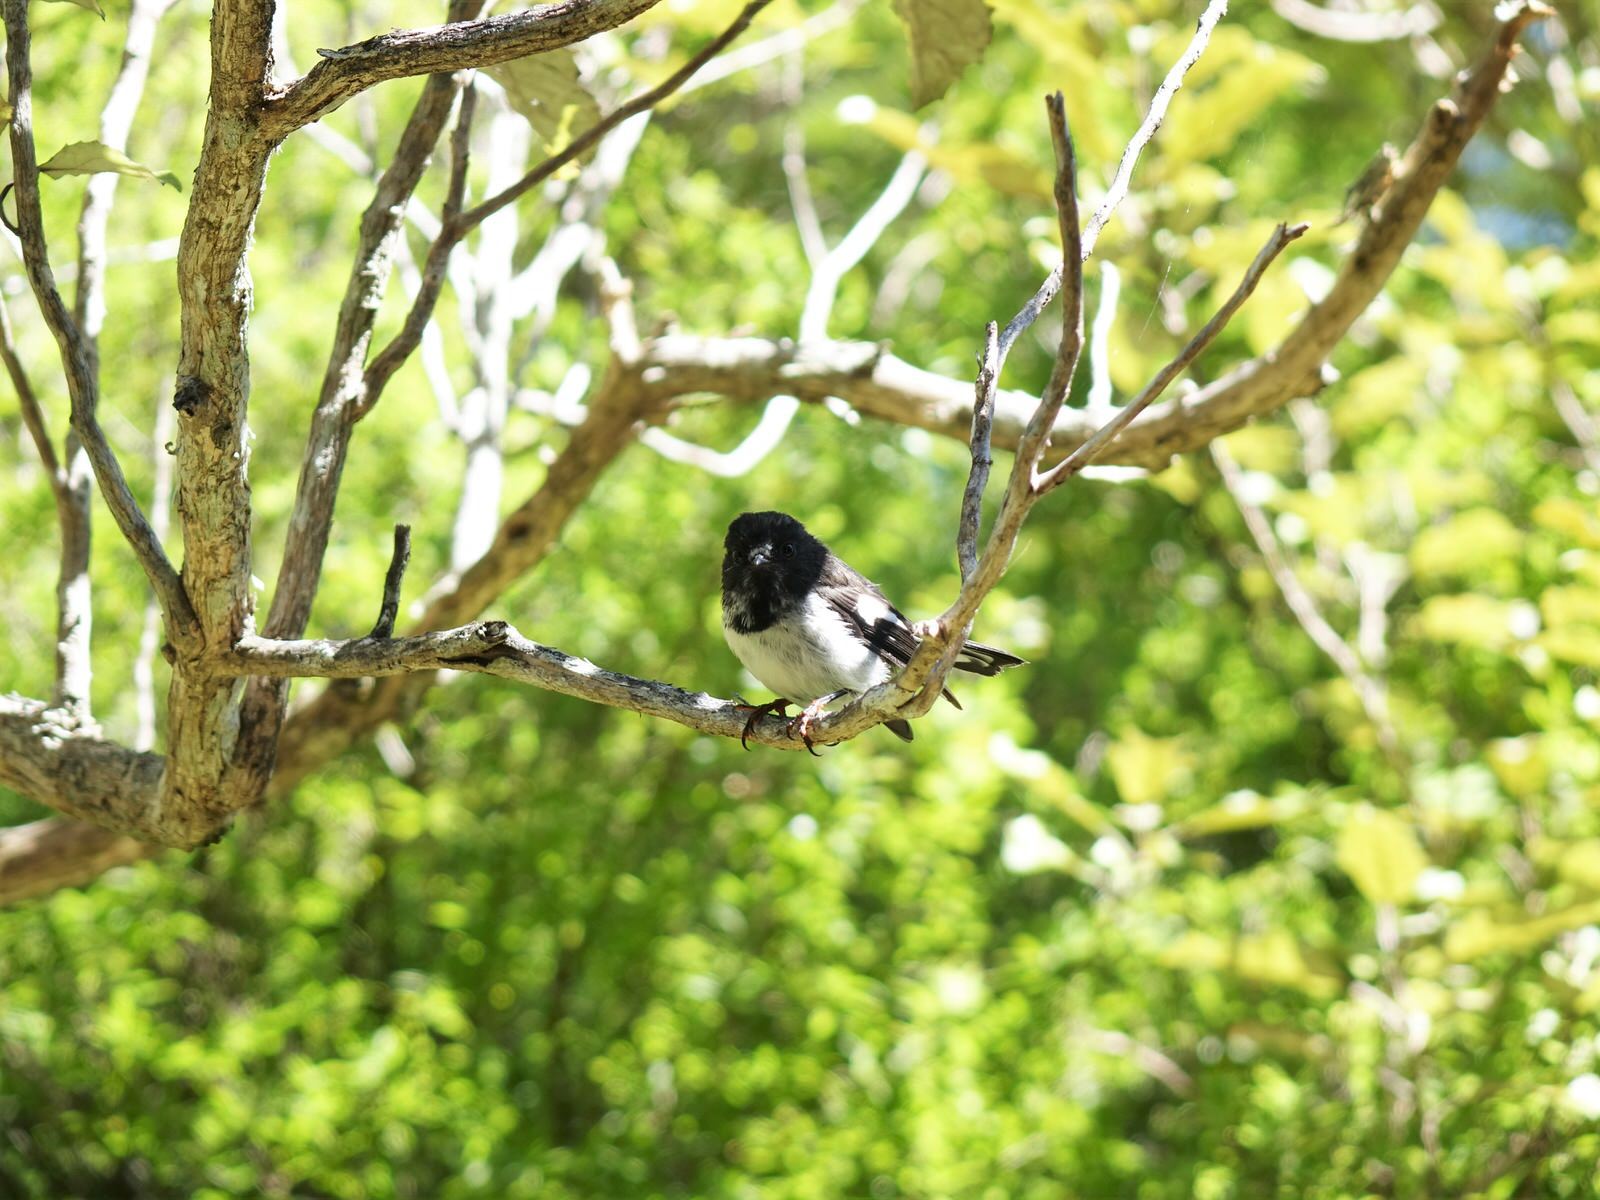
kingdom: Animalia
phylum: Chordata
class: Aves
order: Passeriformes
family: Petroicidae
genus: Petroica
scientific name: Petroica macrocephala
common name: Tomtit
